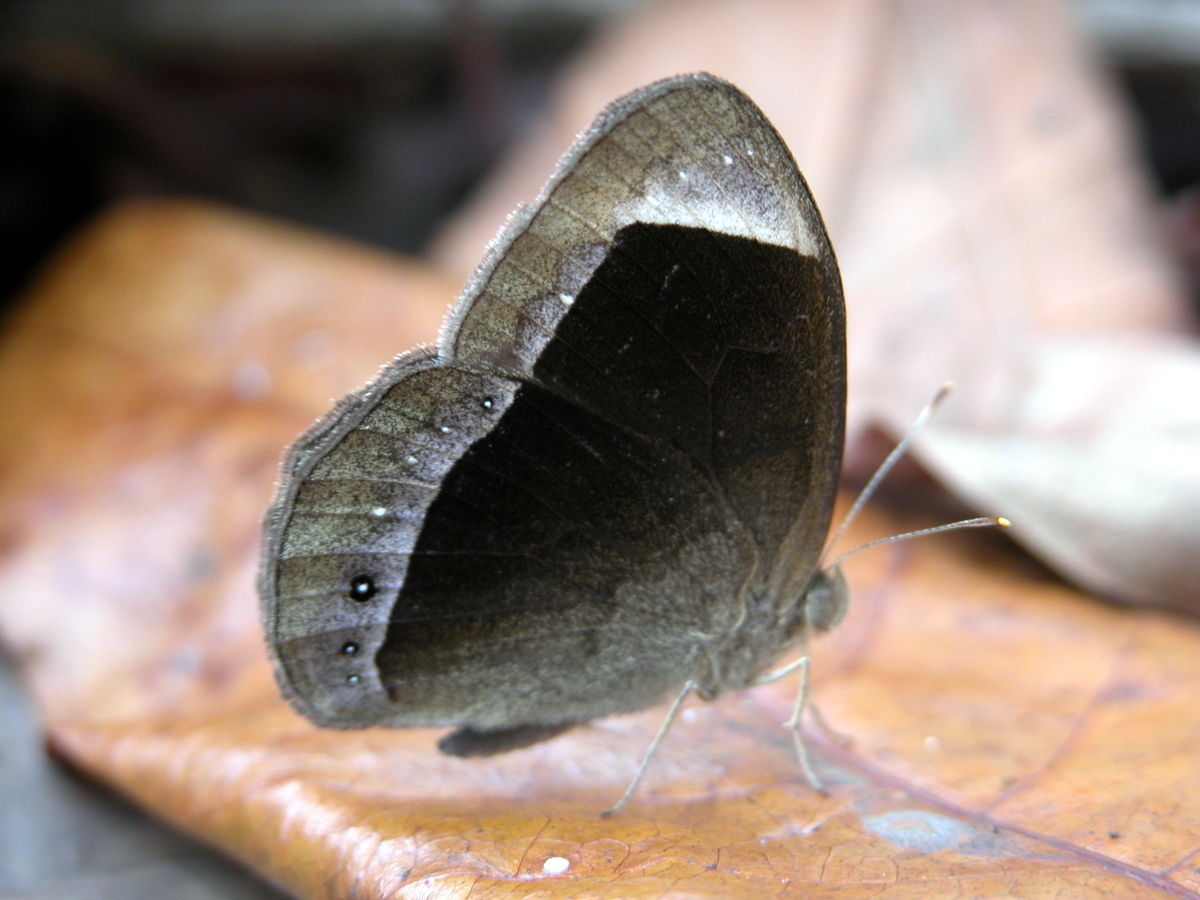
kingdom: Animalia
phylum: Arthropoda
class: Insecta
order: Lepidoptera
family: Nymphalidae
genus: Mycalesis
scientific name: Mycalesis anaxias
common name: White-bar bushbrown
